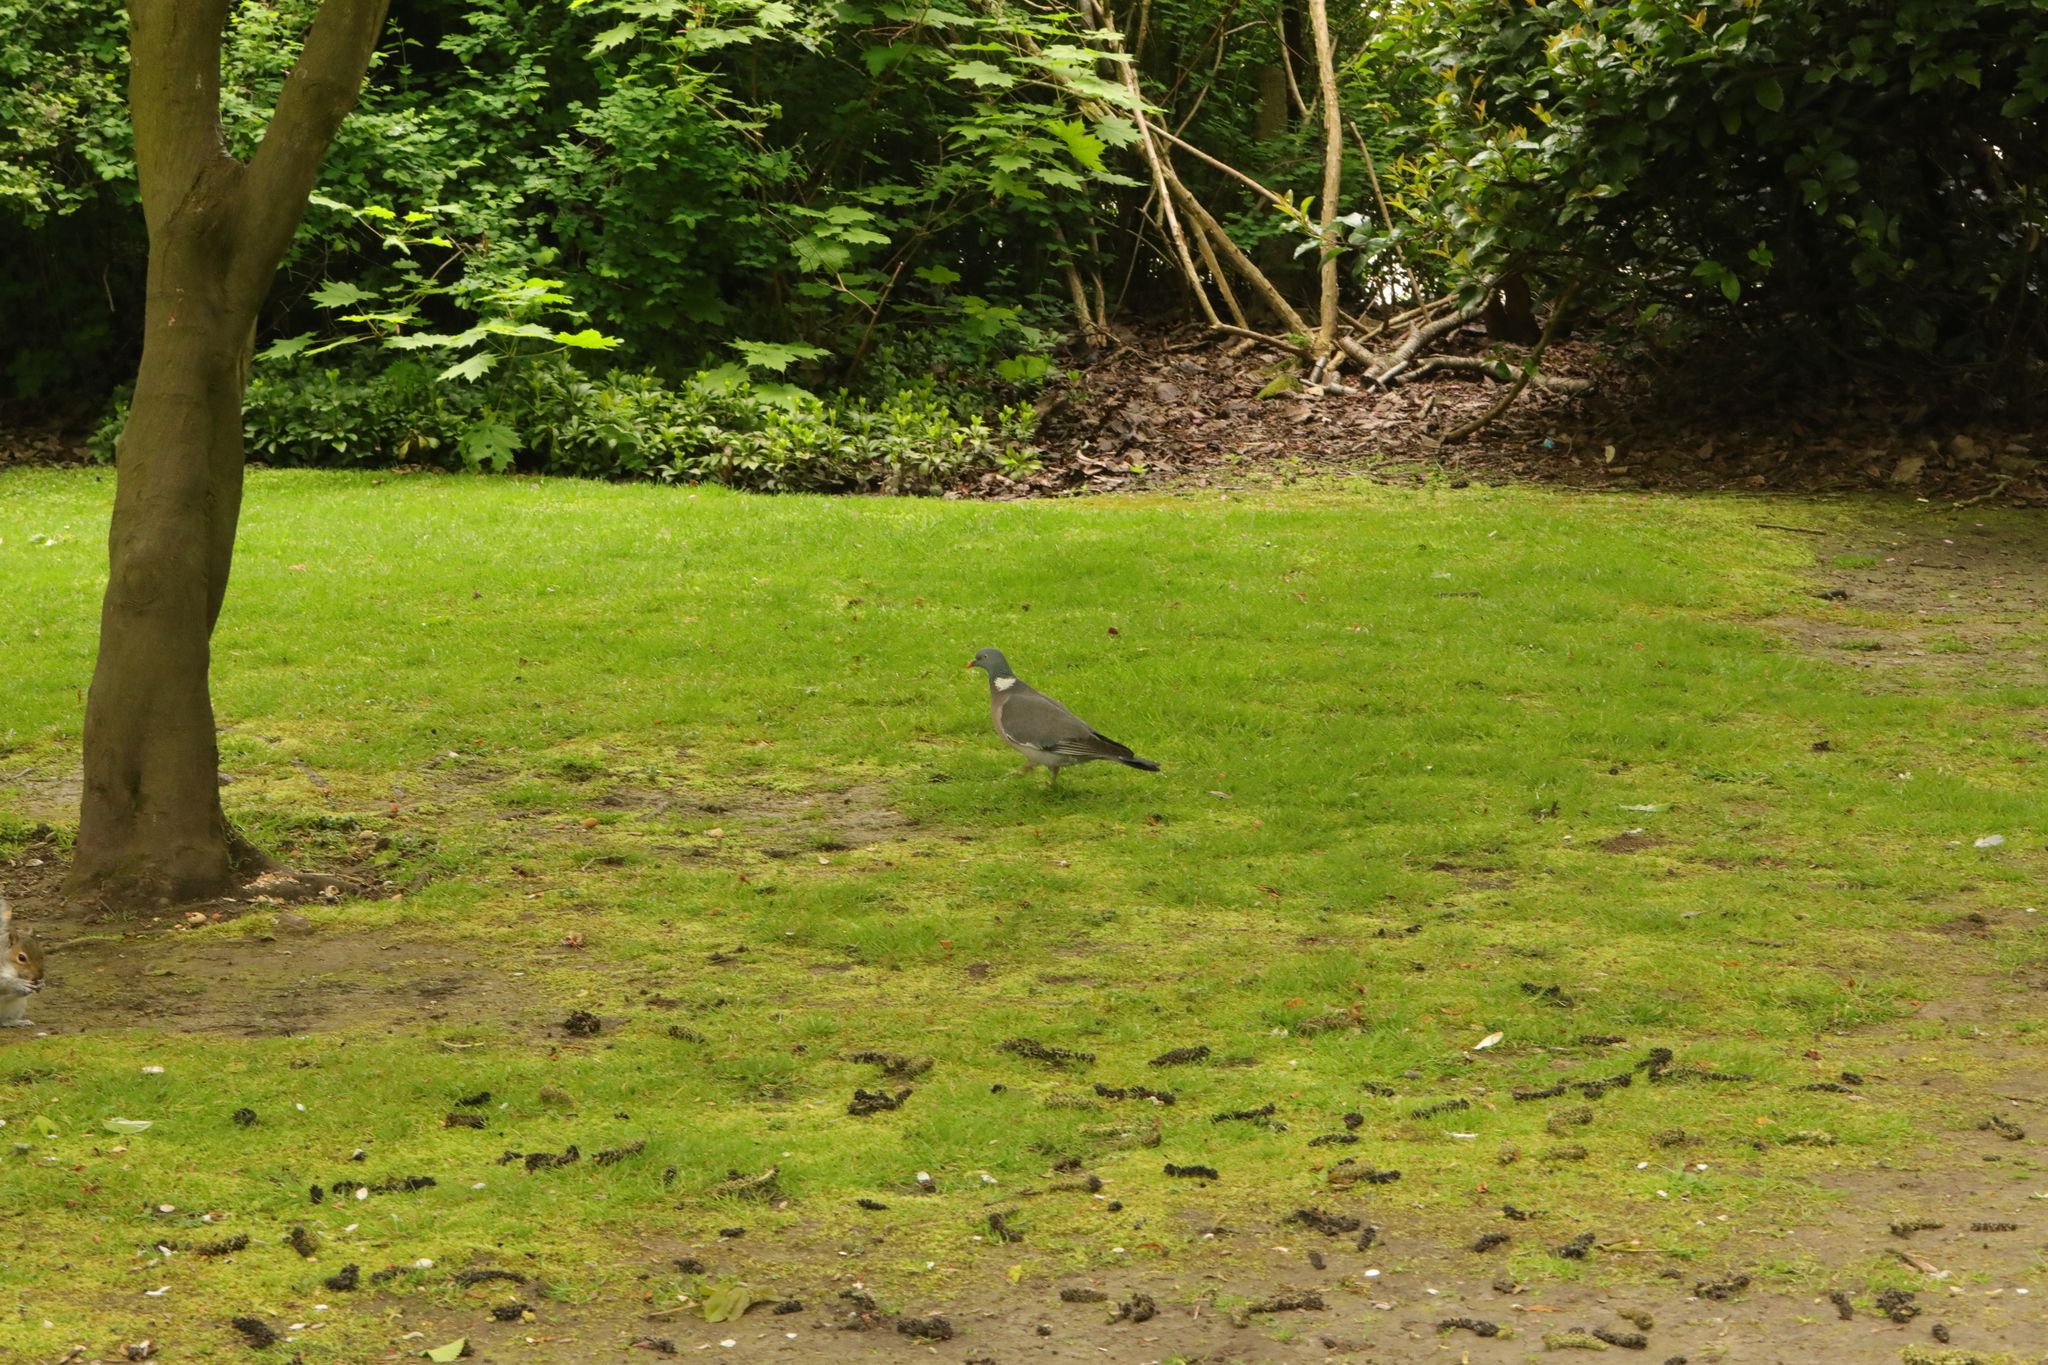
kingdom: Animalia
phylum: Chordata
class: Aves
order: Columbiformes
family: Columbidae
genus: Columba
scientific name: Columba palumbus
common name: Common wood pigeon
